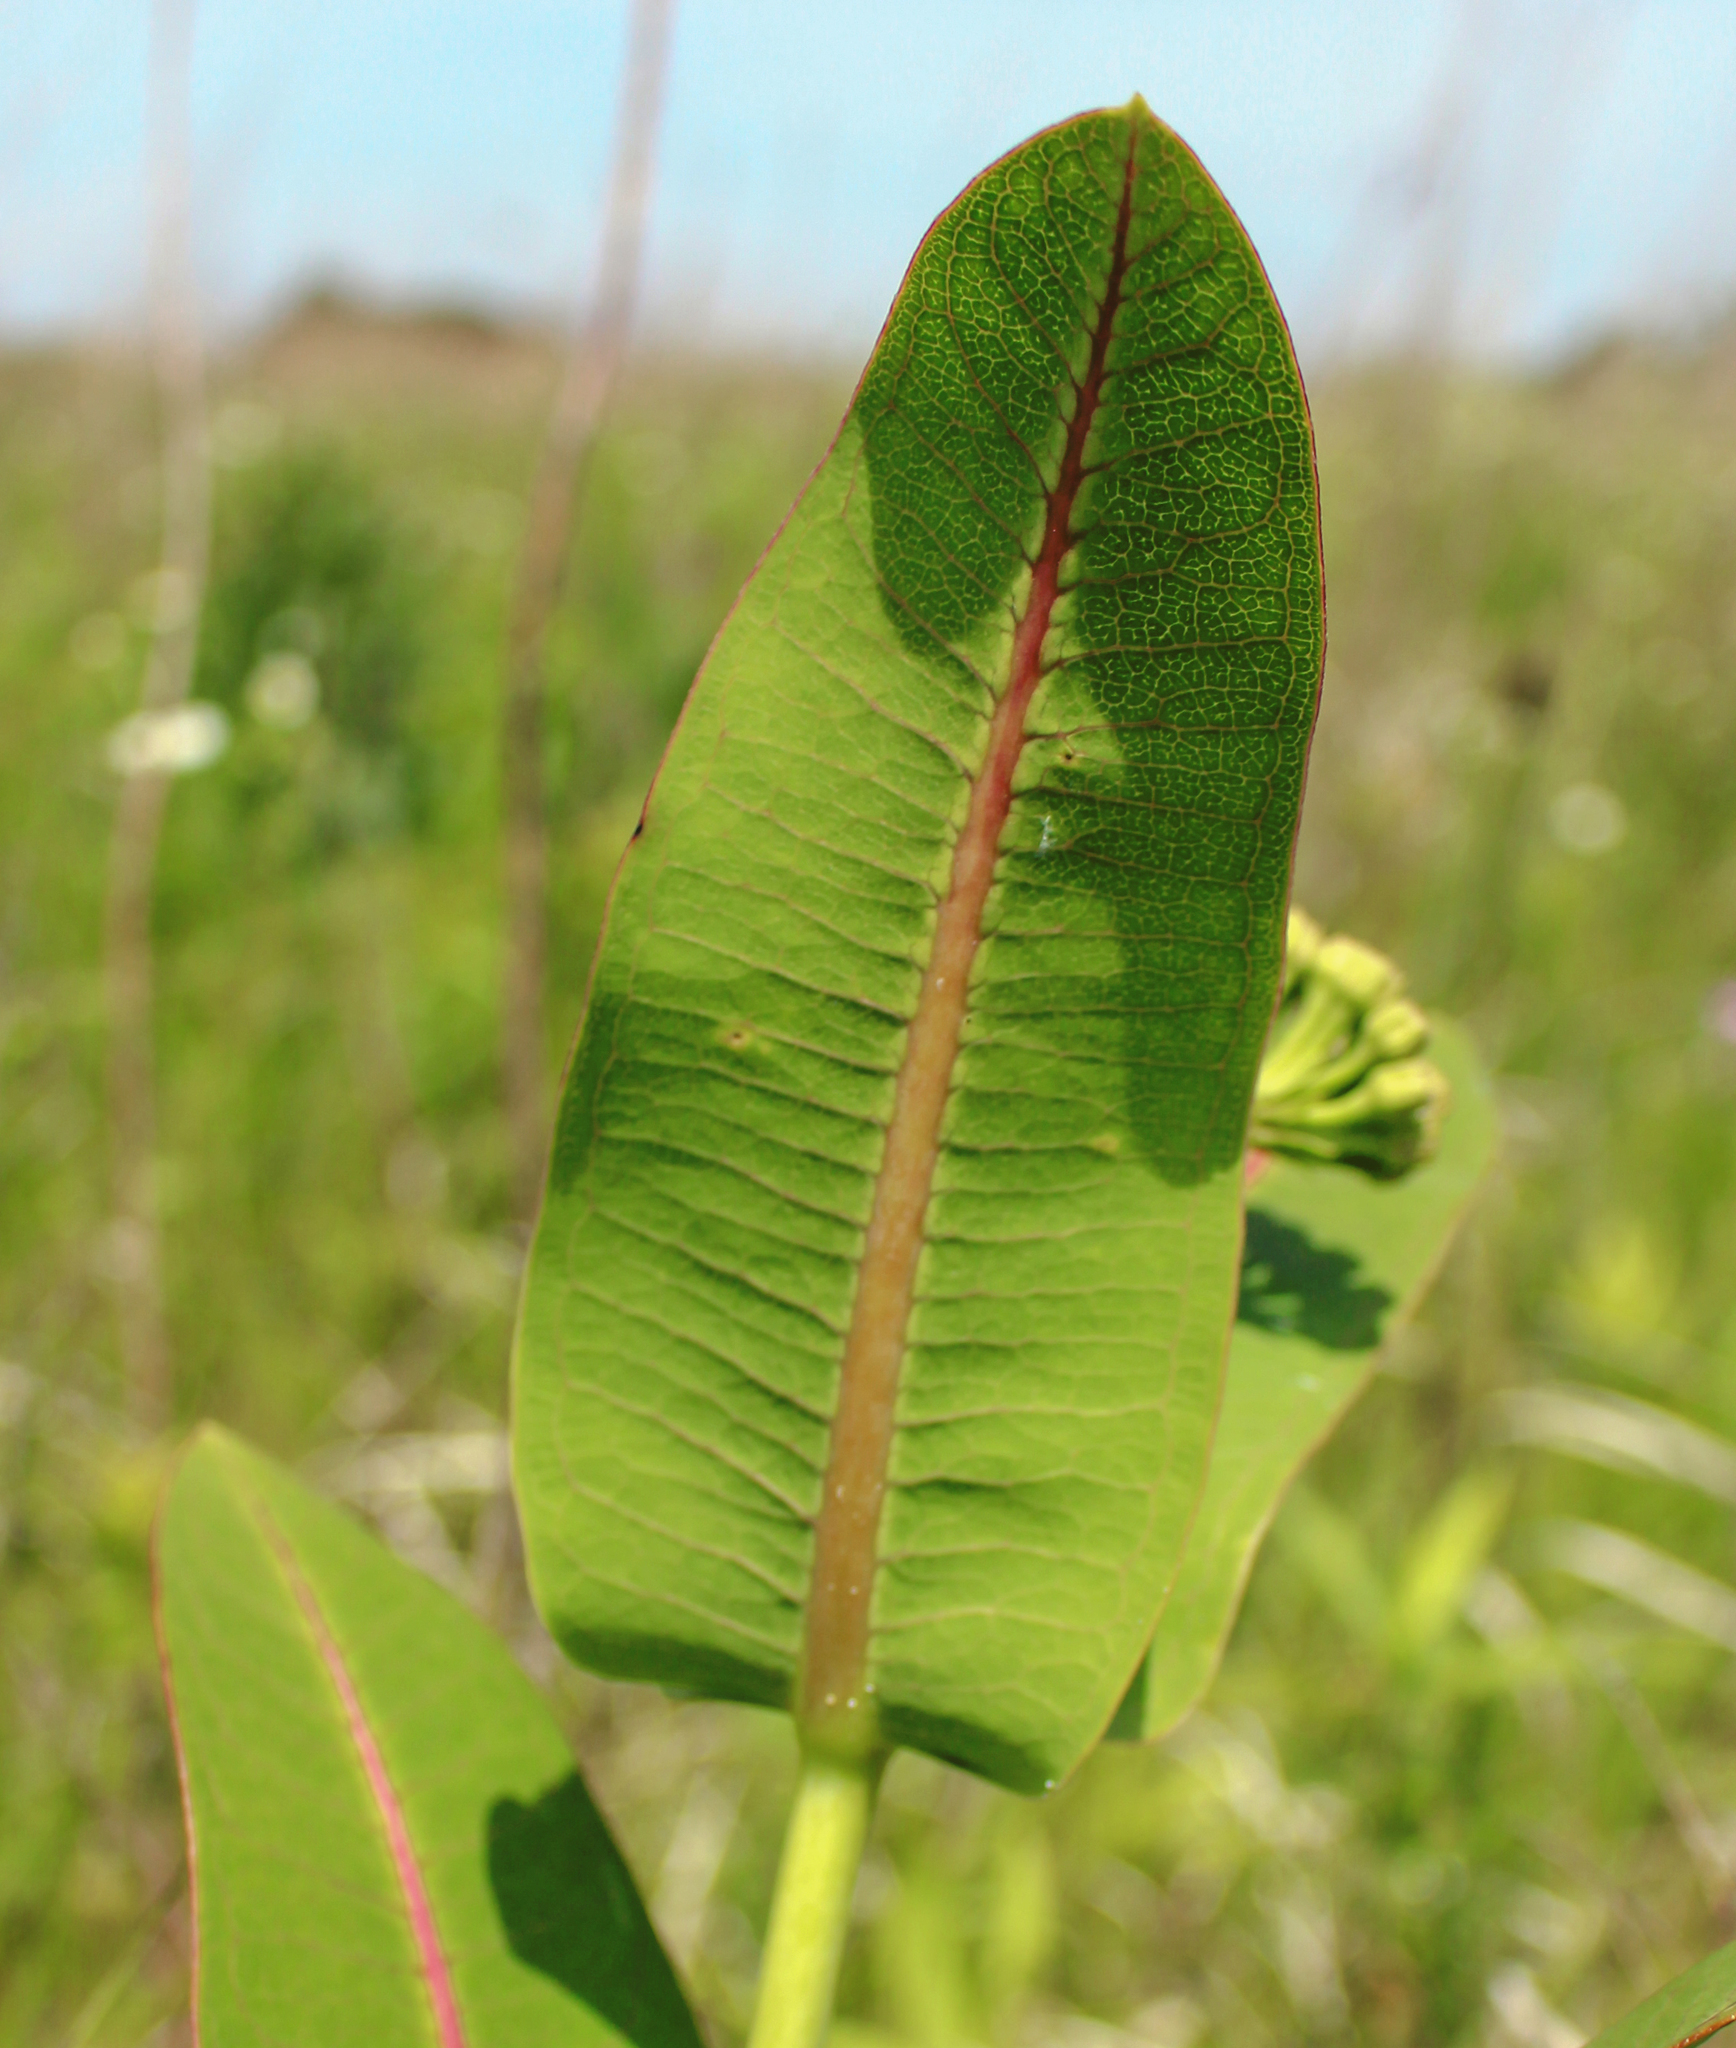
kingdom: Plantae
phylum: Tracheophyta
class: Magnoliopsida
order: Gentianales
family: Apocynaceae
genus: Asclepias
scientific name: Asclepias sullivantii
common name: Prairie milkweed
